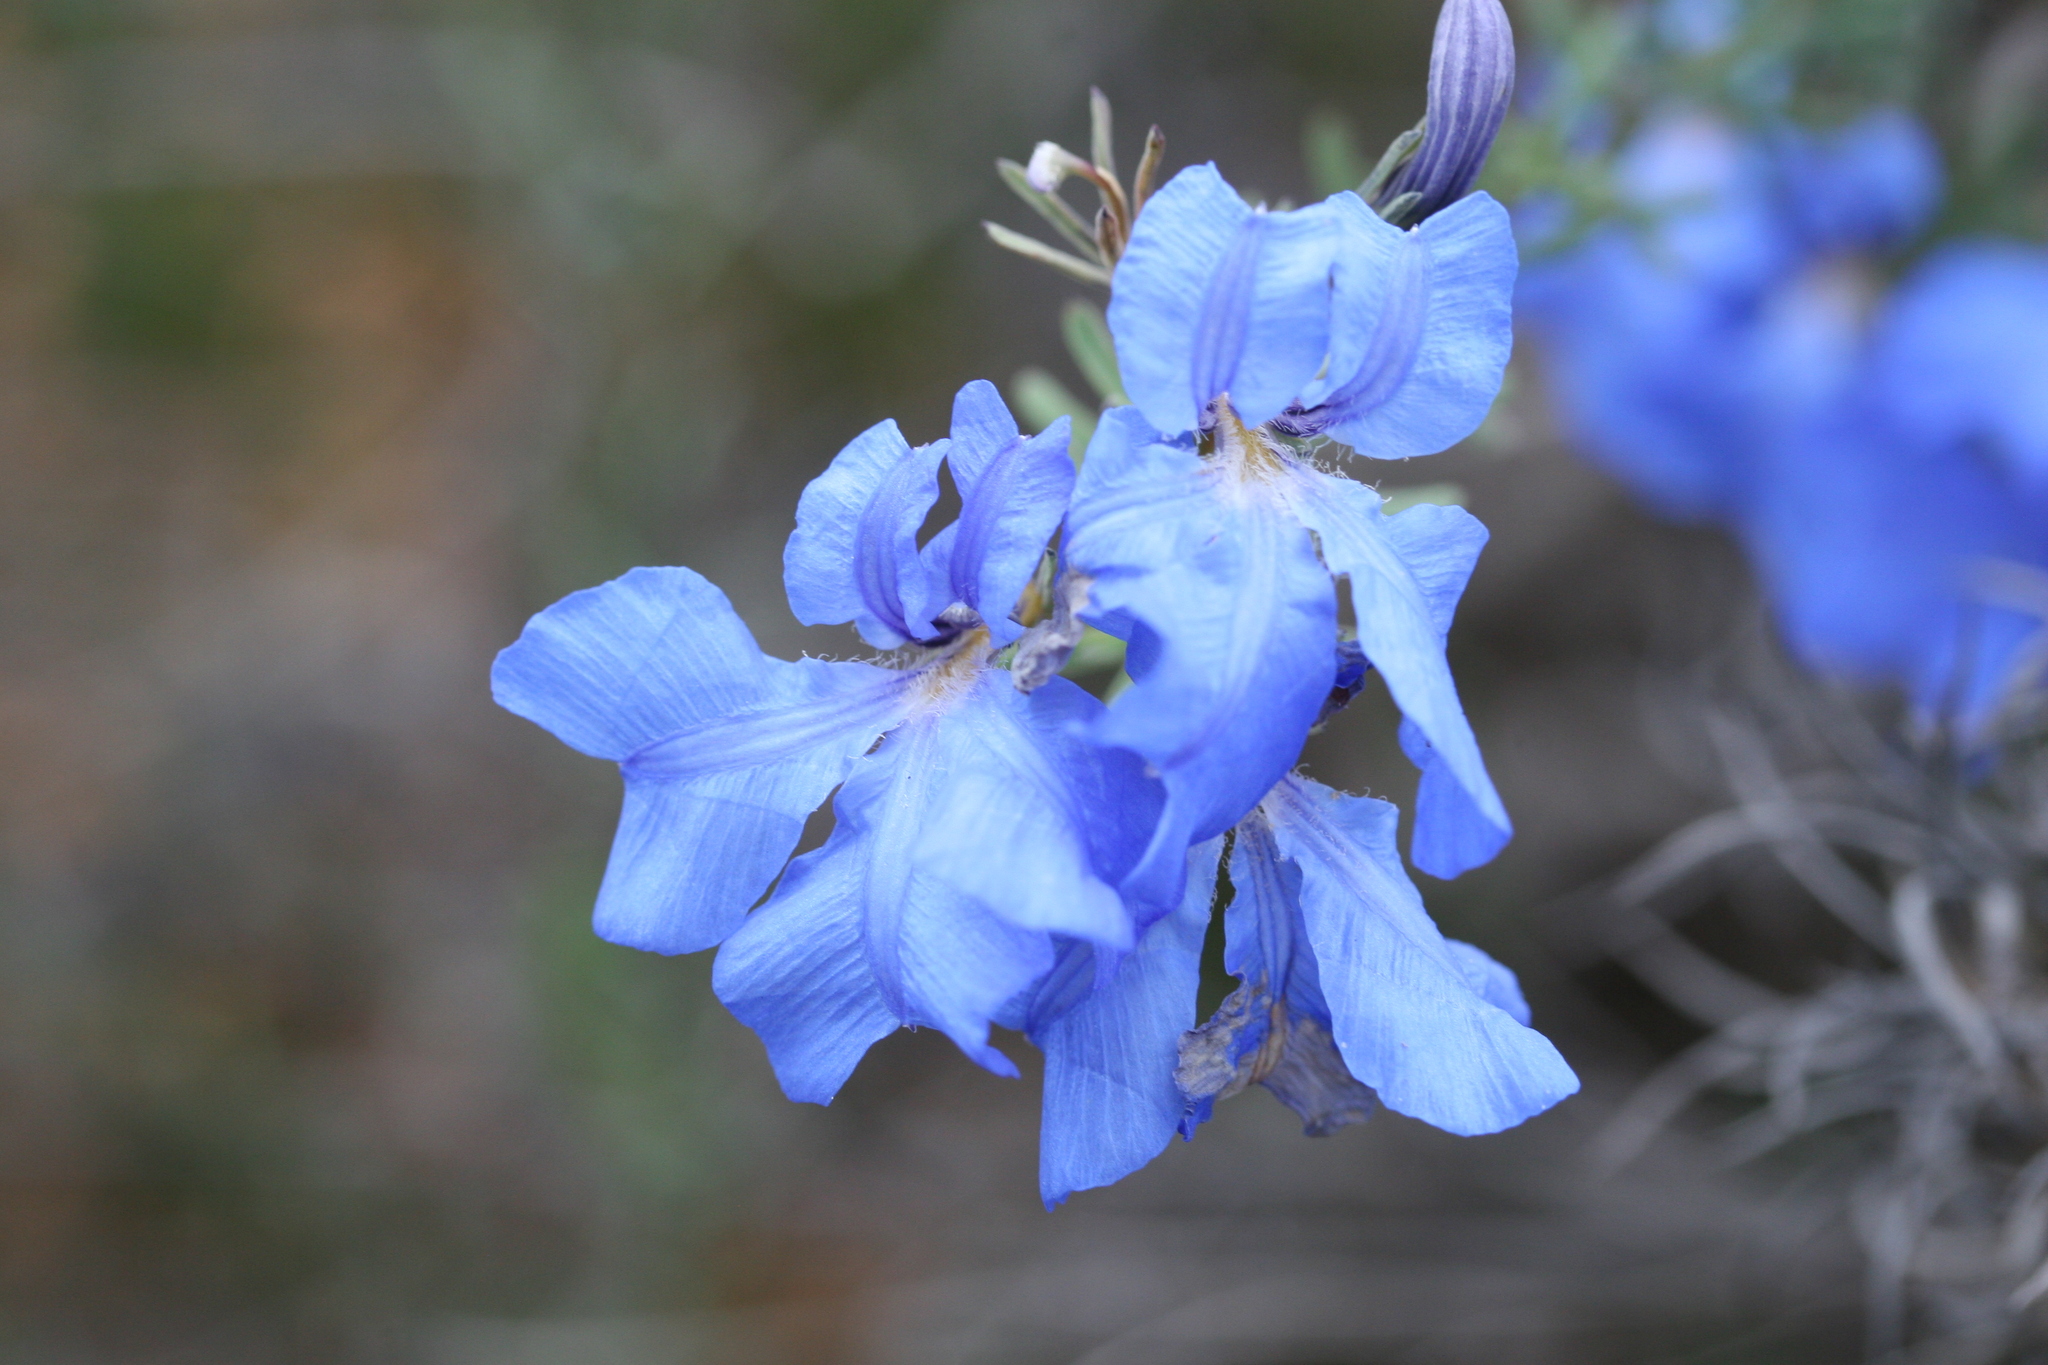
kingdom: Plantae
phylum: Tracheophyta
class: Magnoliopsida
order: Asterales
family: Goodeniaceae
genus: Lechenaultia
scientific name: Lechenaultia biloba
